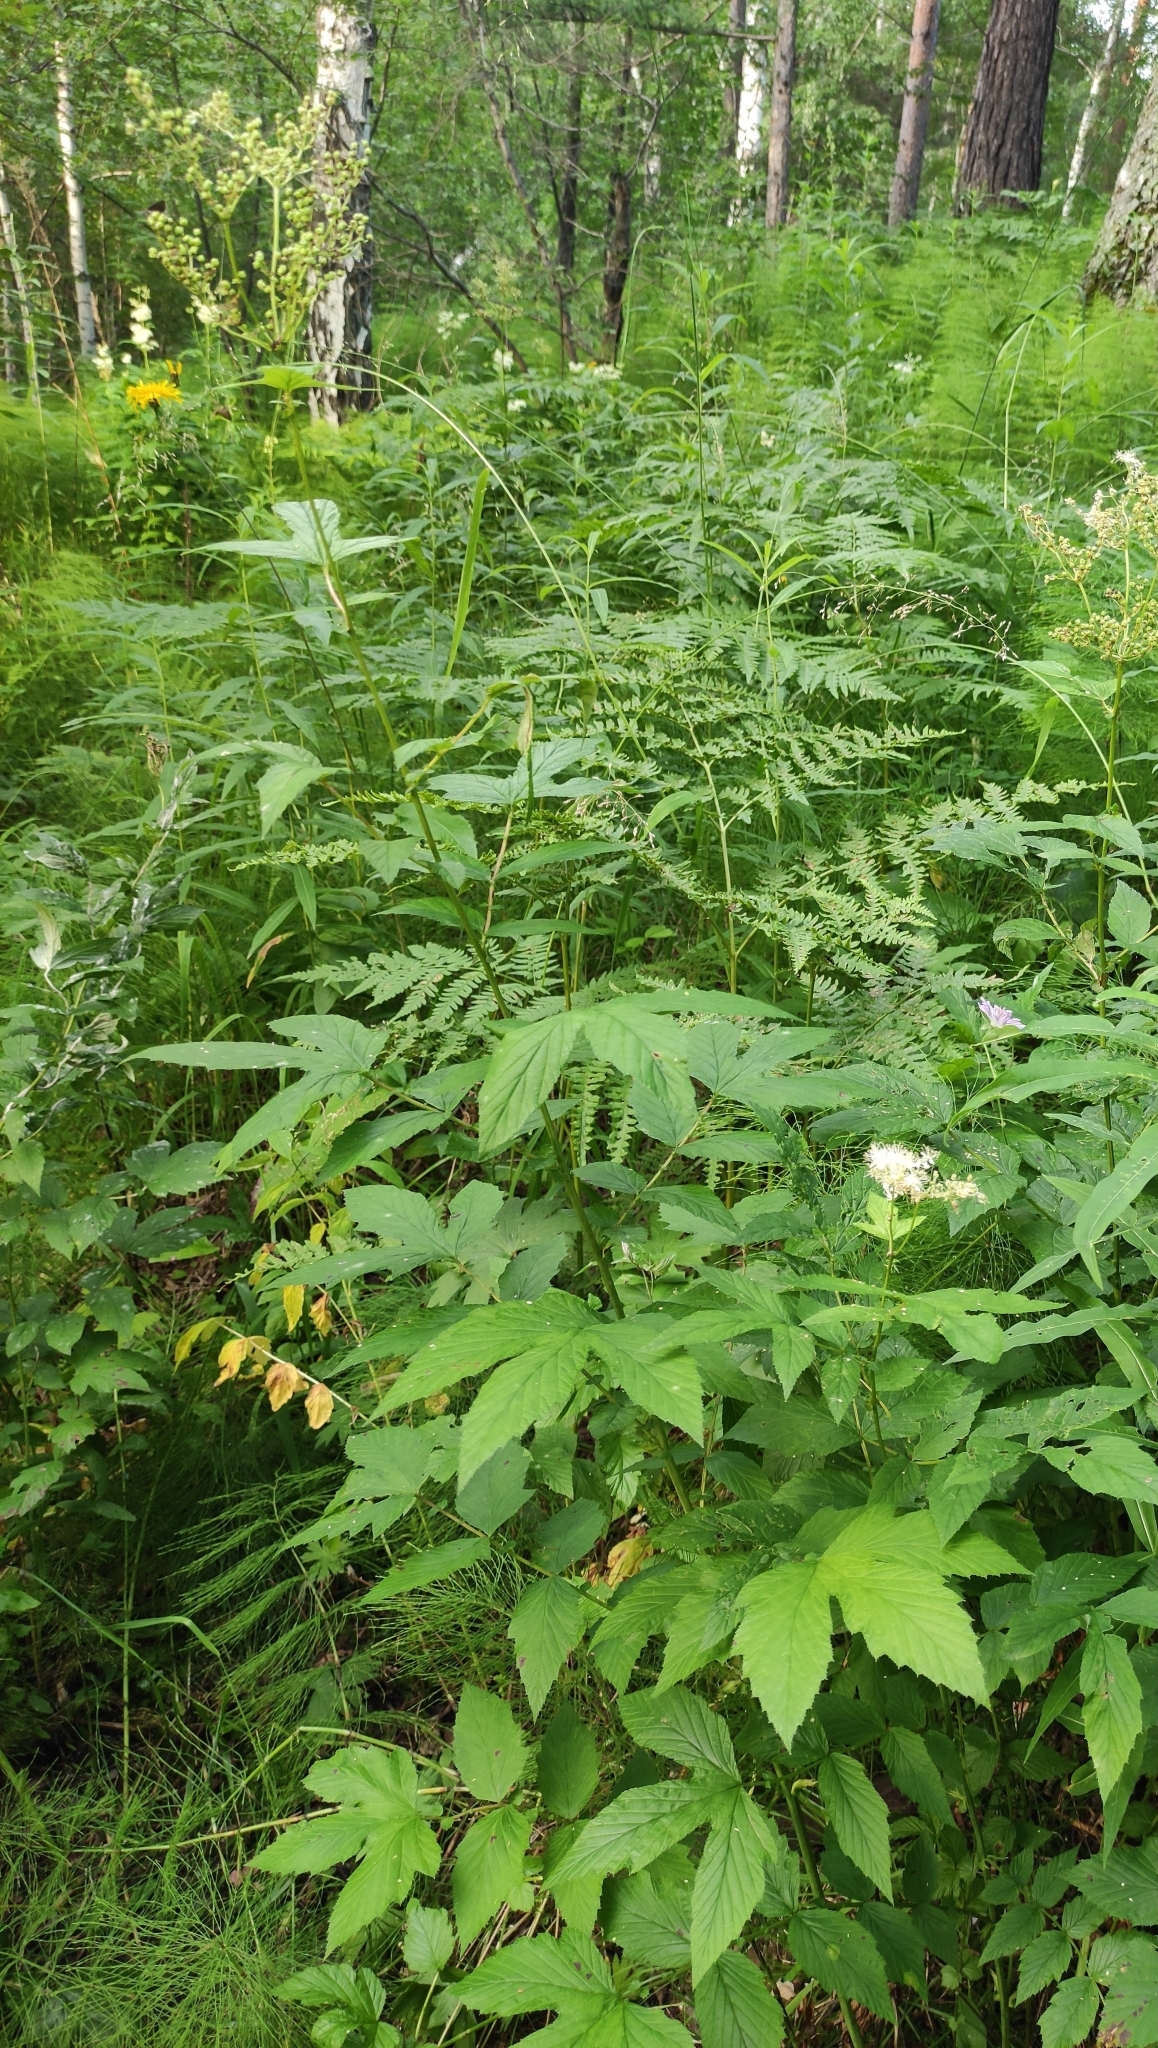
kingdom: Plantae
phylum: Tracheophyta
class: Magnoliopsida
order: Rosales
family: Rosaceae
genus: Filipendula
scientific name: Filipendula ulmaria
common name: Meadowsweet
